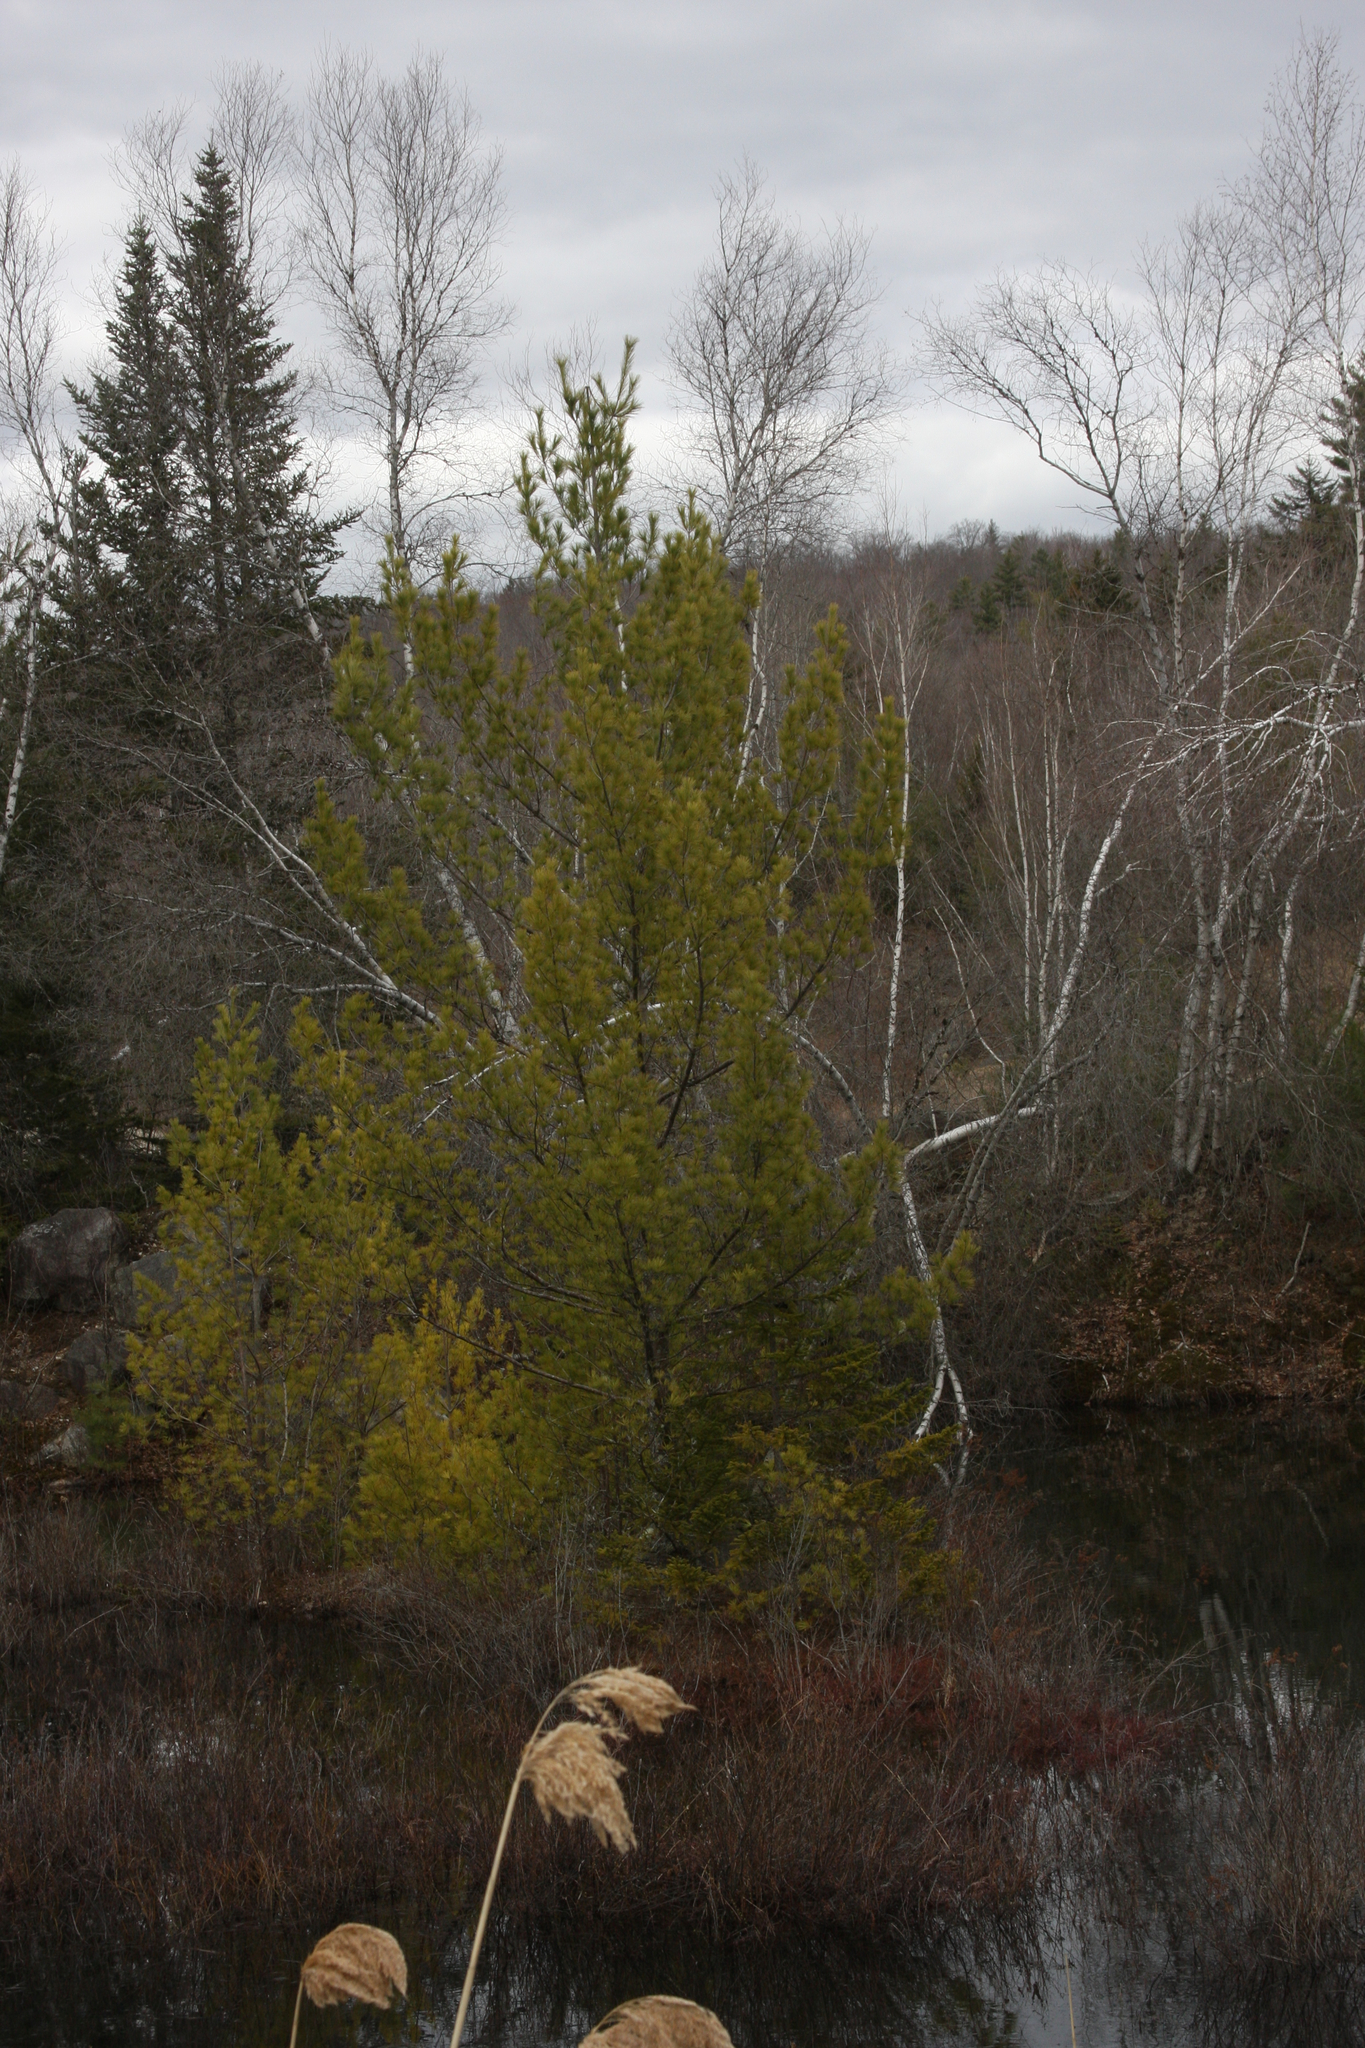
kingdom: Plantae
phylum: Tracheophyta
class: Pinopsida
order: Pinales
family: Pinaceae
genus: Pinus
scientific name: Pinus strobus
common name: Weymouth pine
